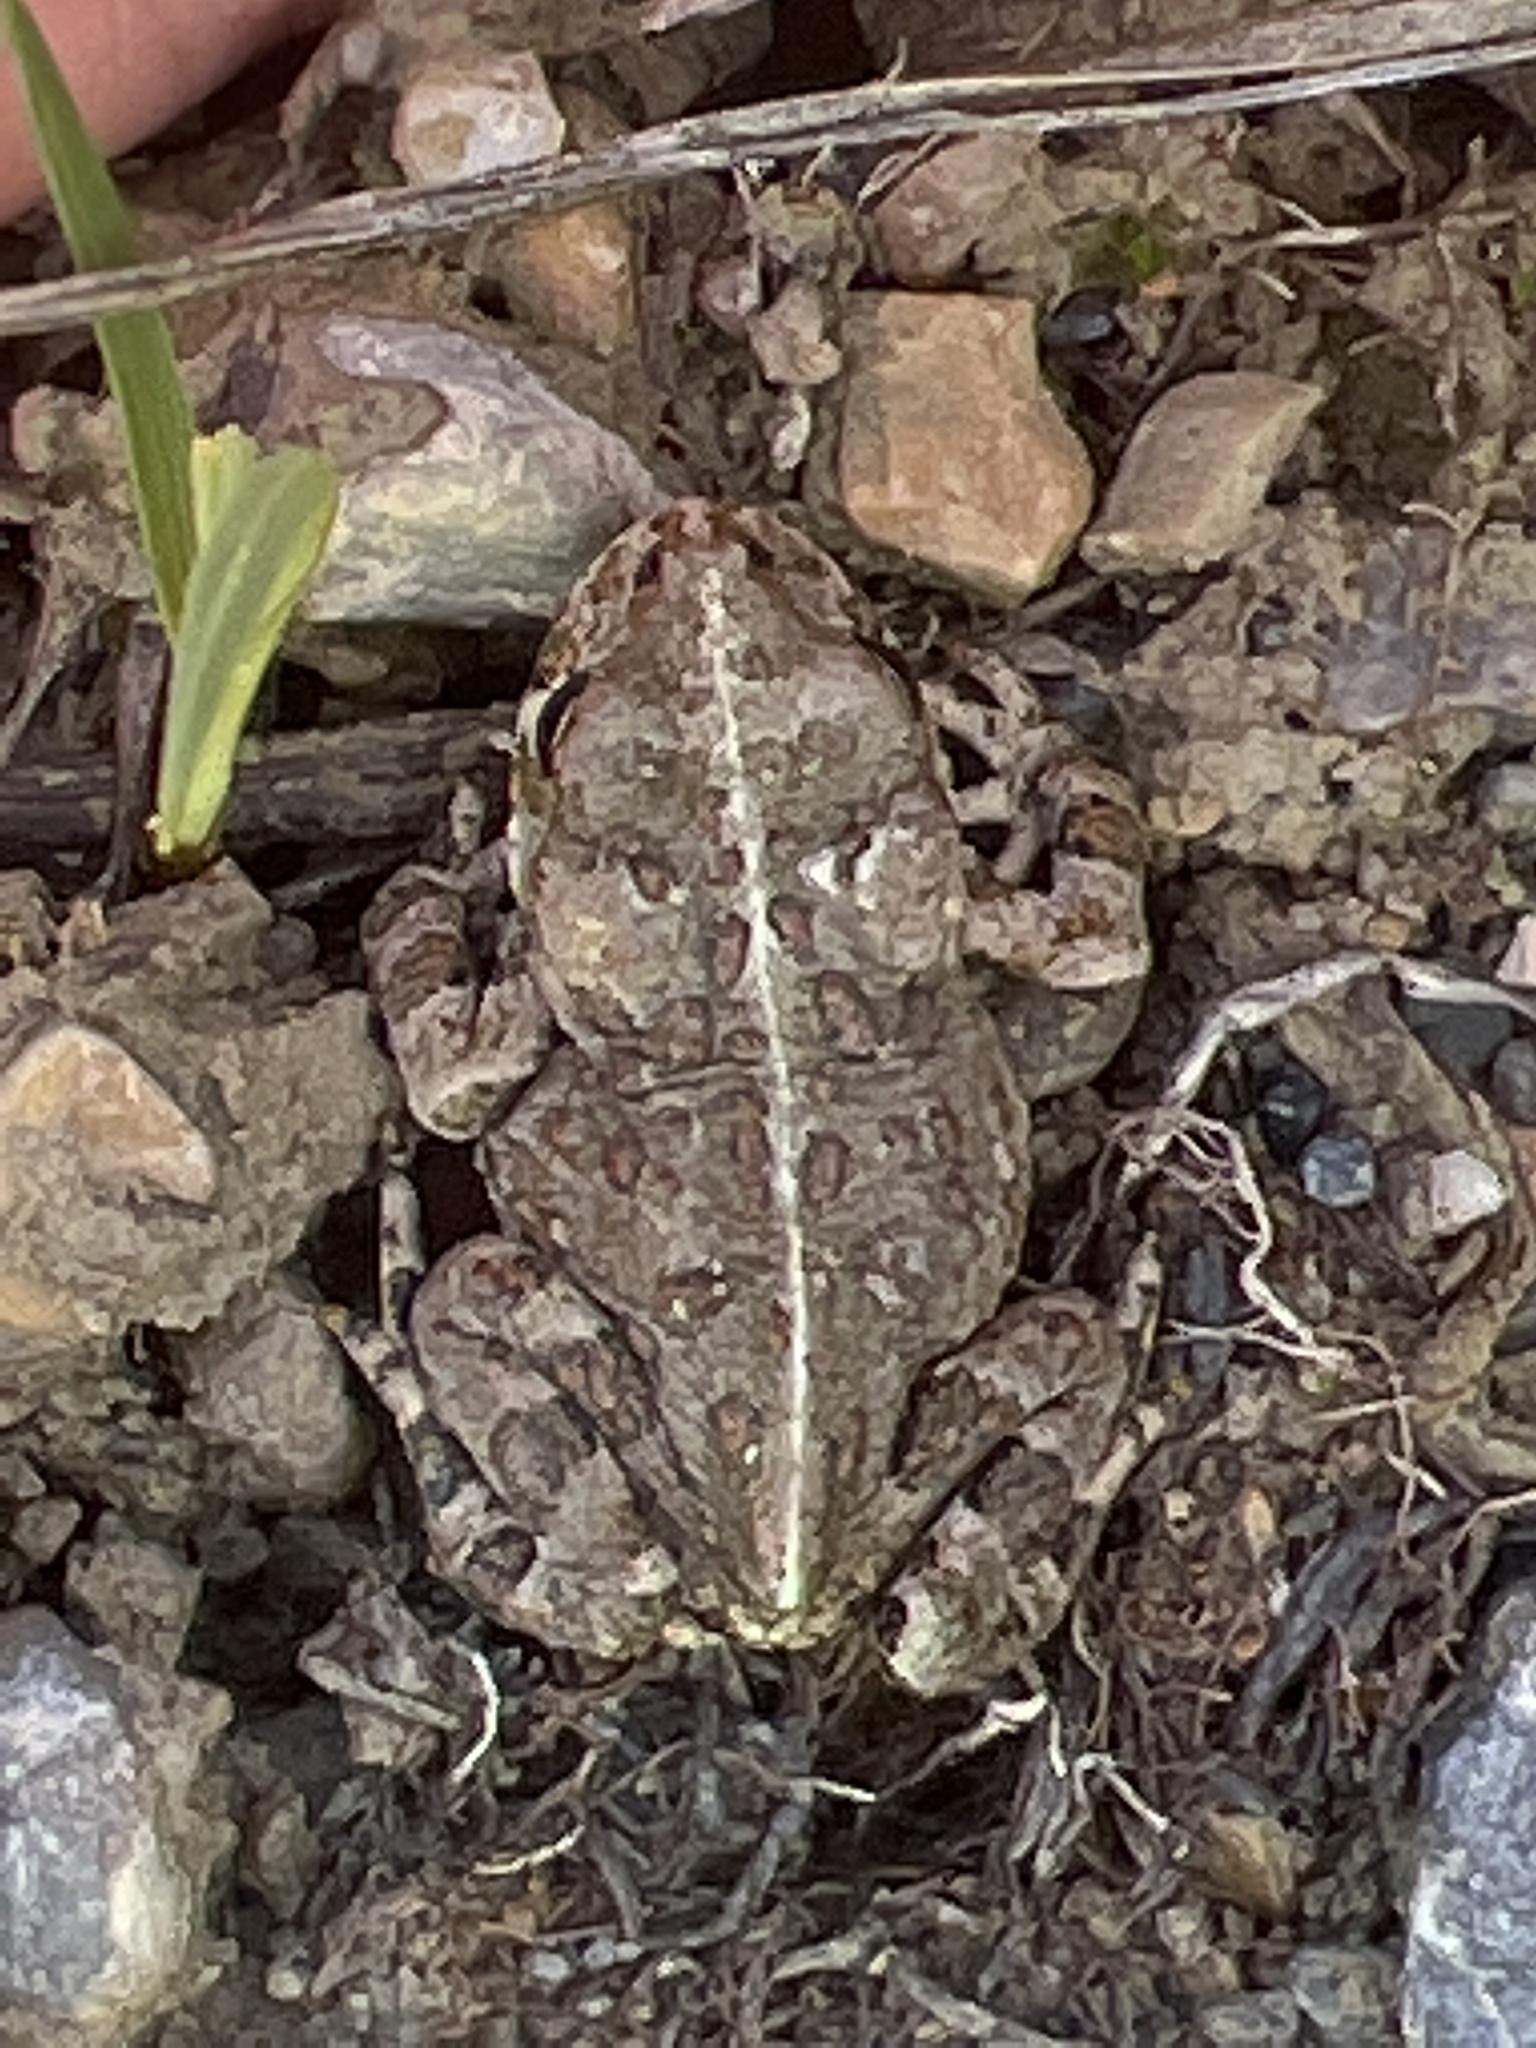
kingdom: Animalia
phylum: Chordata
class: Amphibia
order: Anura
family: Bufonidae
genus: Anaxyrus
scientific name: Anaxyrus boreas
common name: Western toad
